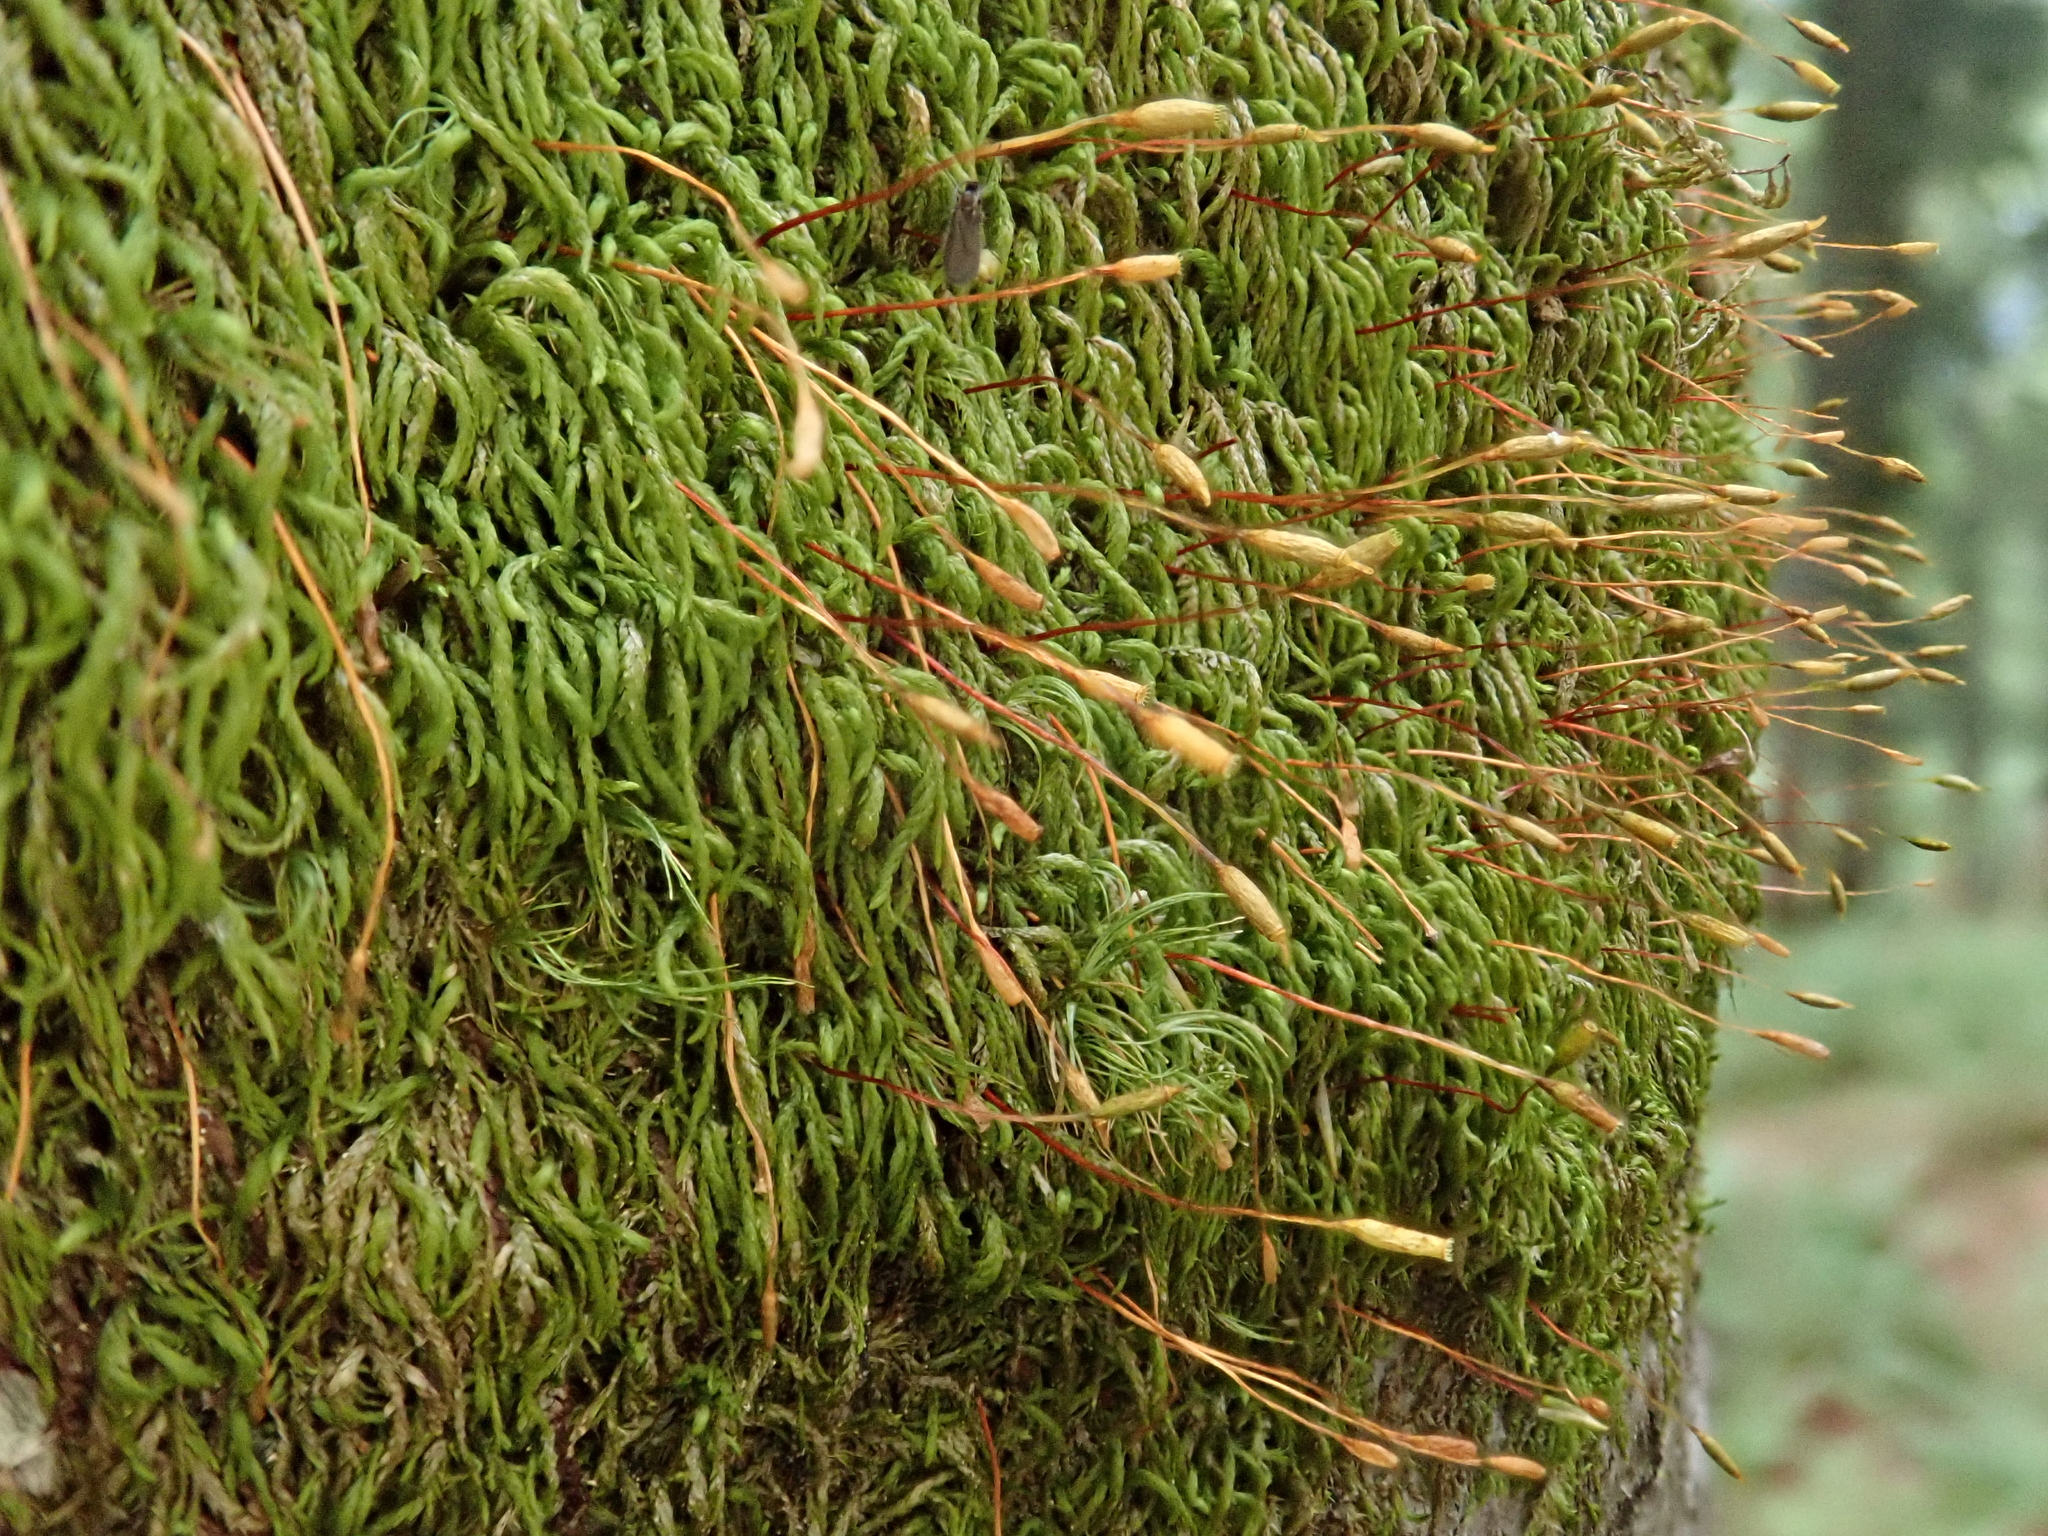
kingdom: Plantae
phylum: Bryophyta
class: Bryopsida
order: Hypnales
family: Pterigynandraceae
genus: Pterigynandrum
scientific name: Pterigynandrum filiforme
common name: Capillary wing moss
